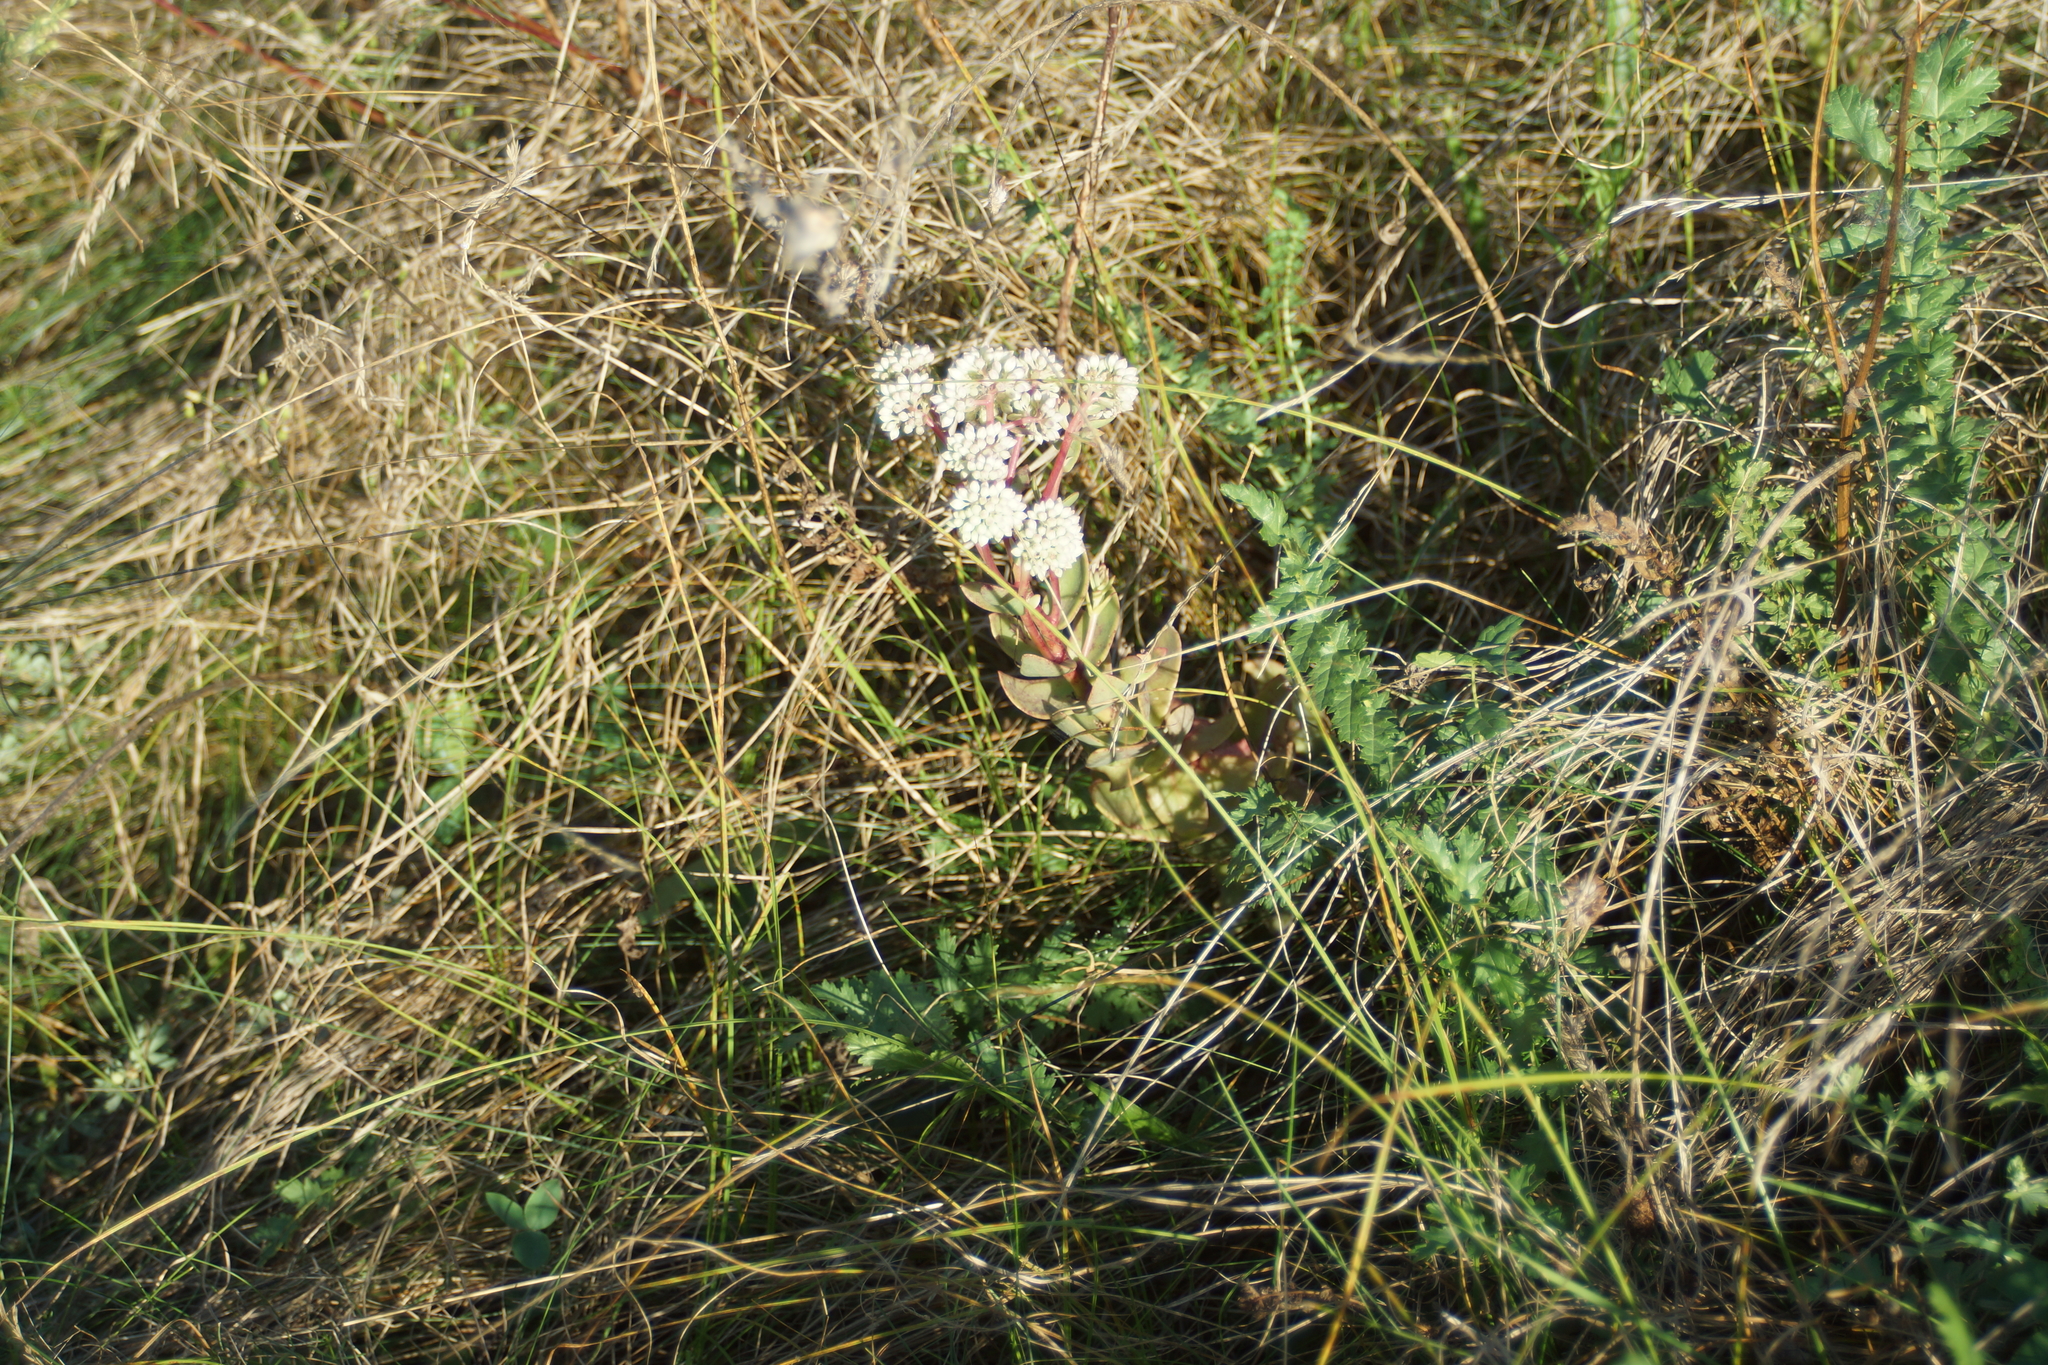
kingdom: Plantae
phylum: Tracheophyta
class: Magnoliopsida
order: Saxifragales
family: Crassulaceae
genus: Hylotelephium
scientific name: Hylotelephium maximum
